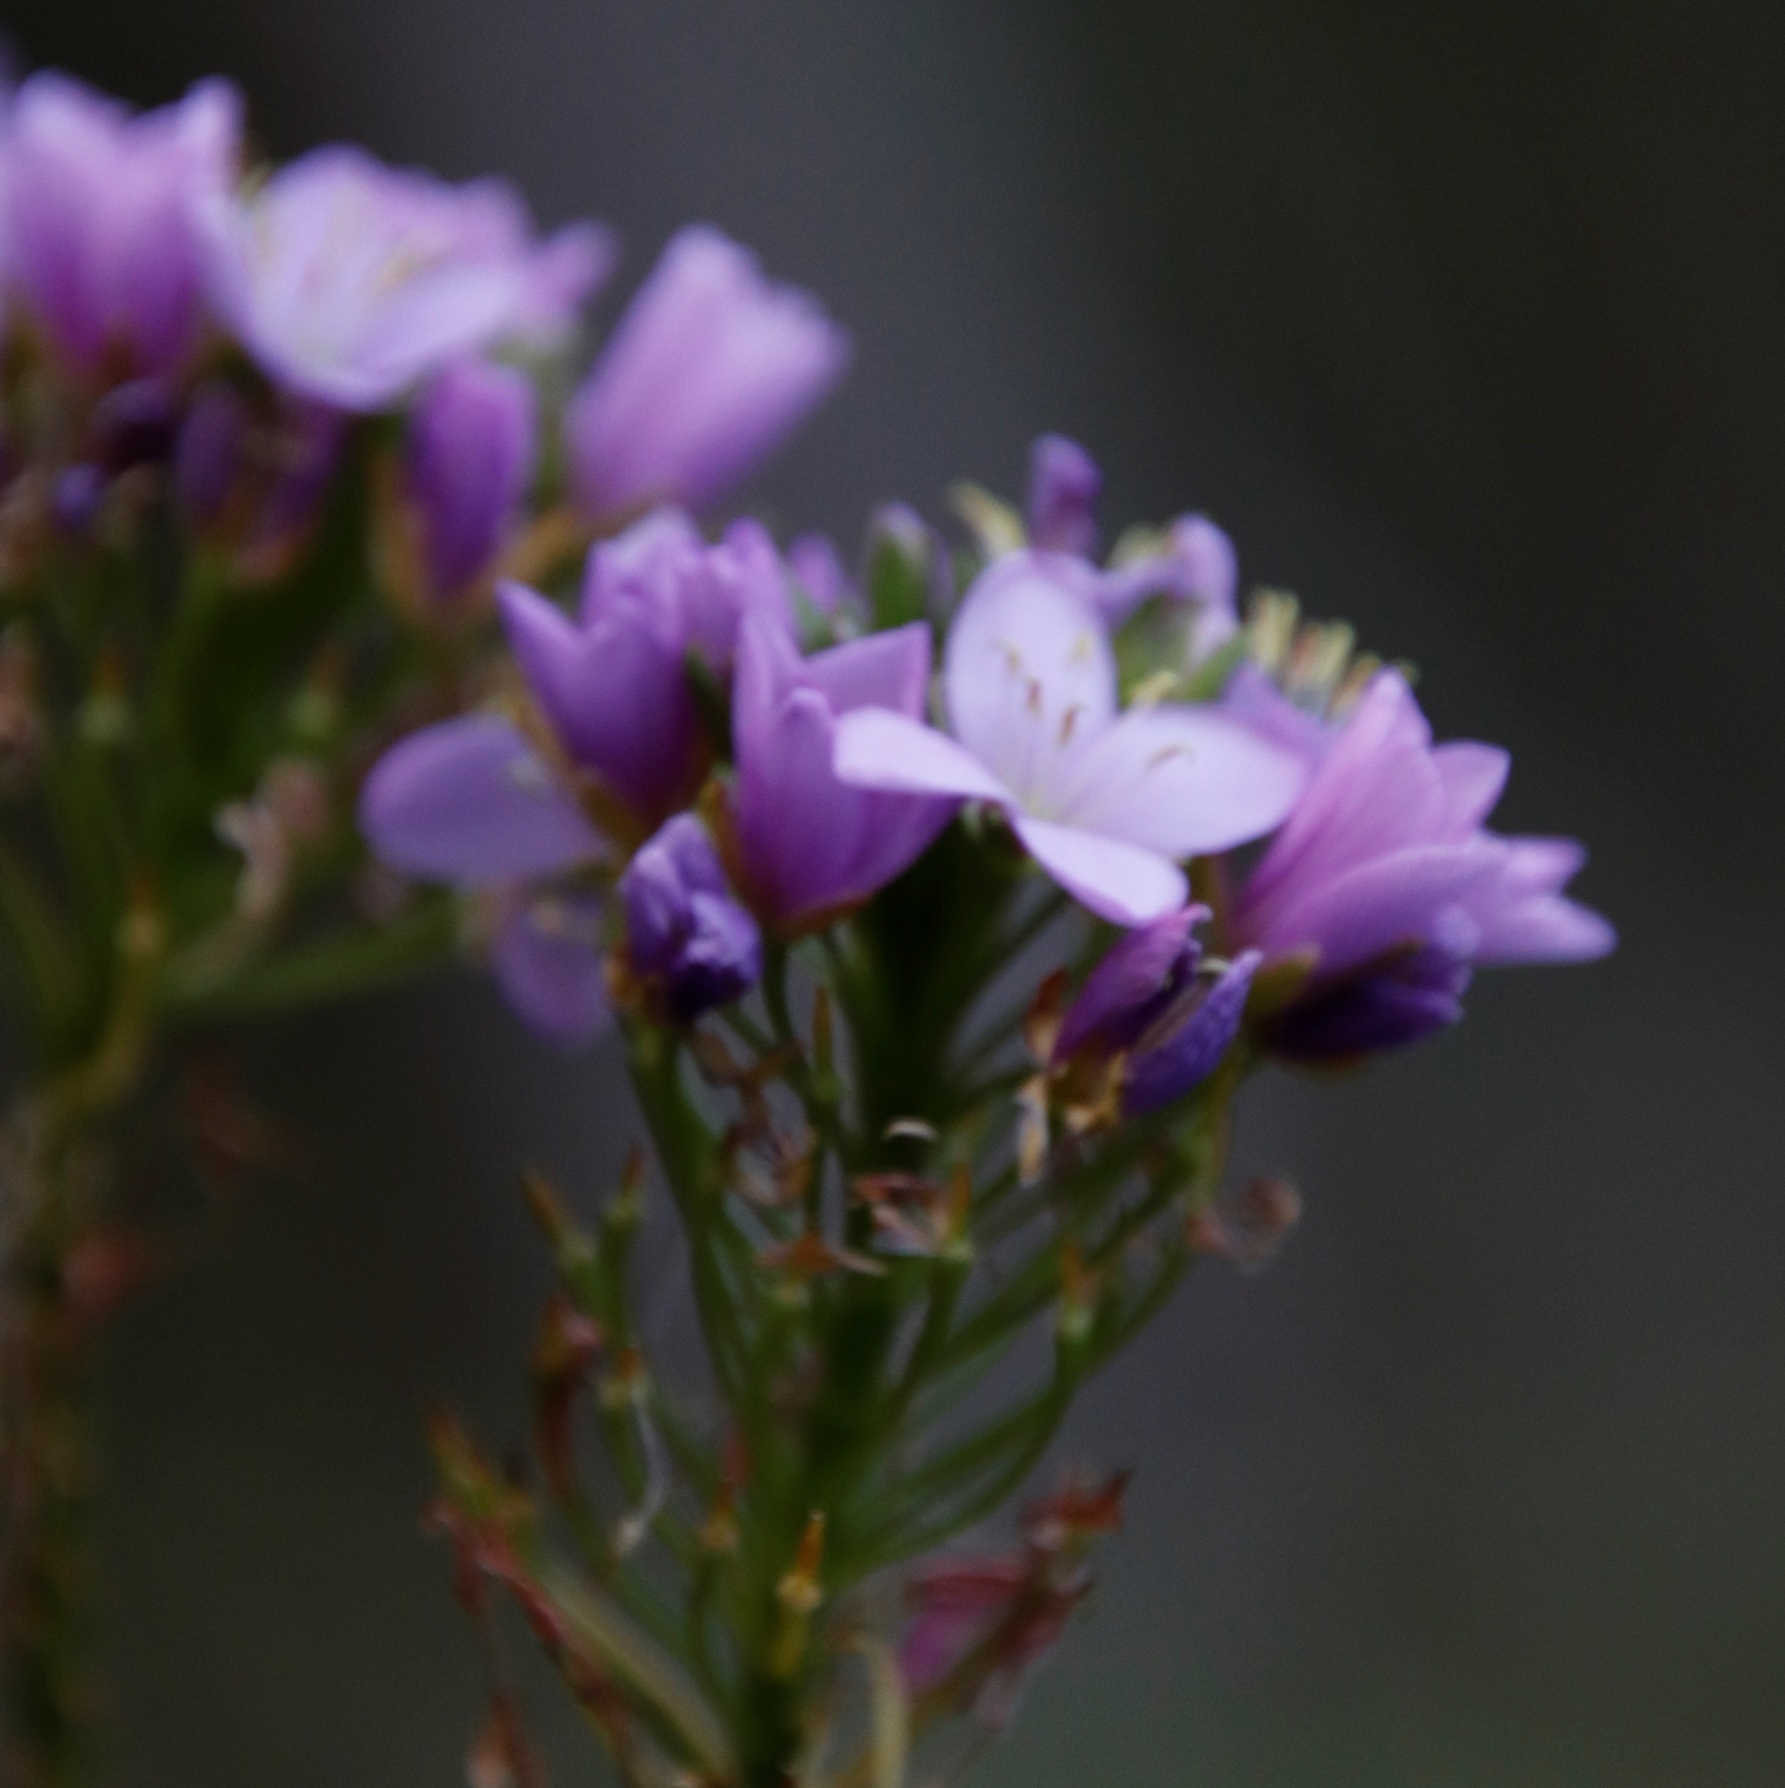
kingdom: Plantae
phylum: Tracheophyta
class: Magnoliopsida
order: Brassicales
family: Brassicaceae
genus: Heliophila
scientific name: Heliophila callosa
